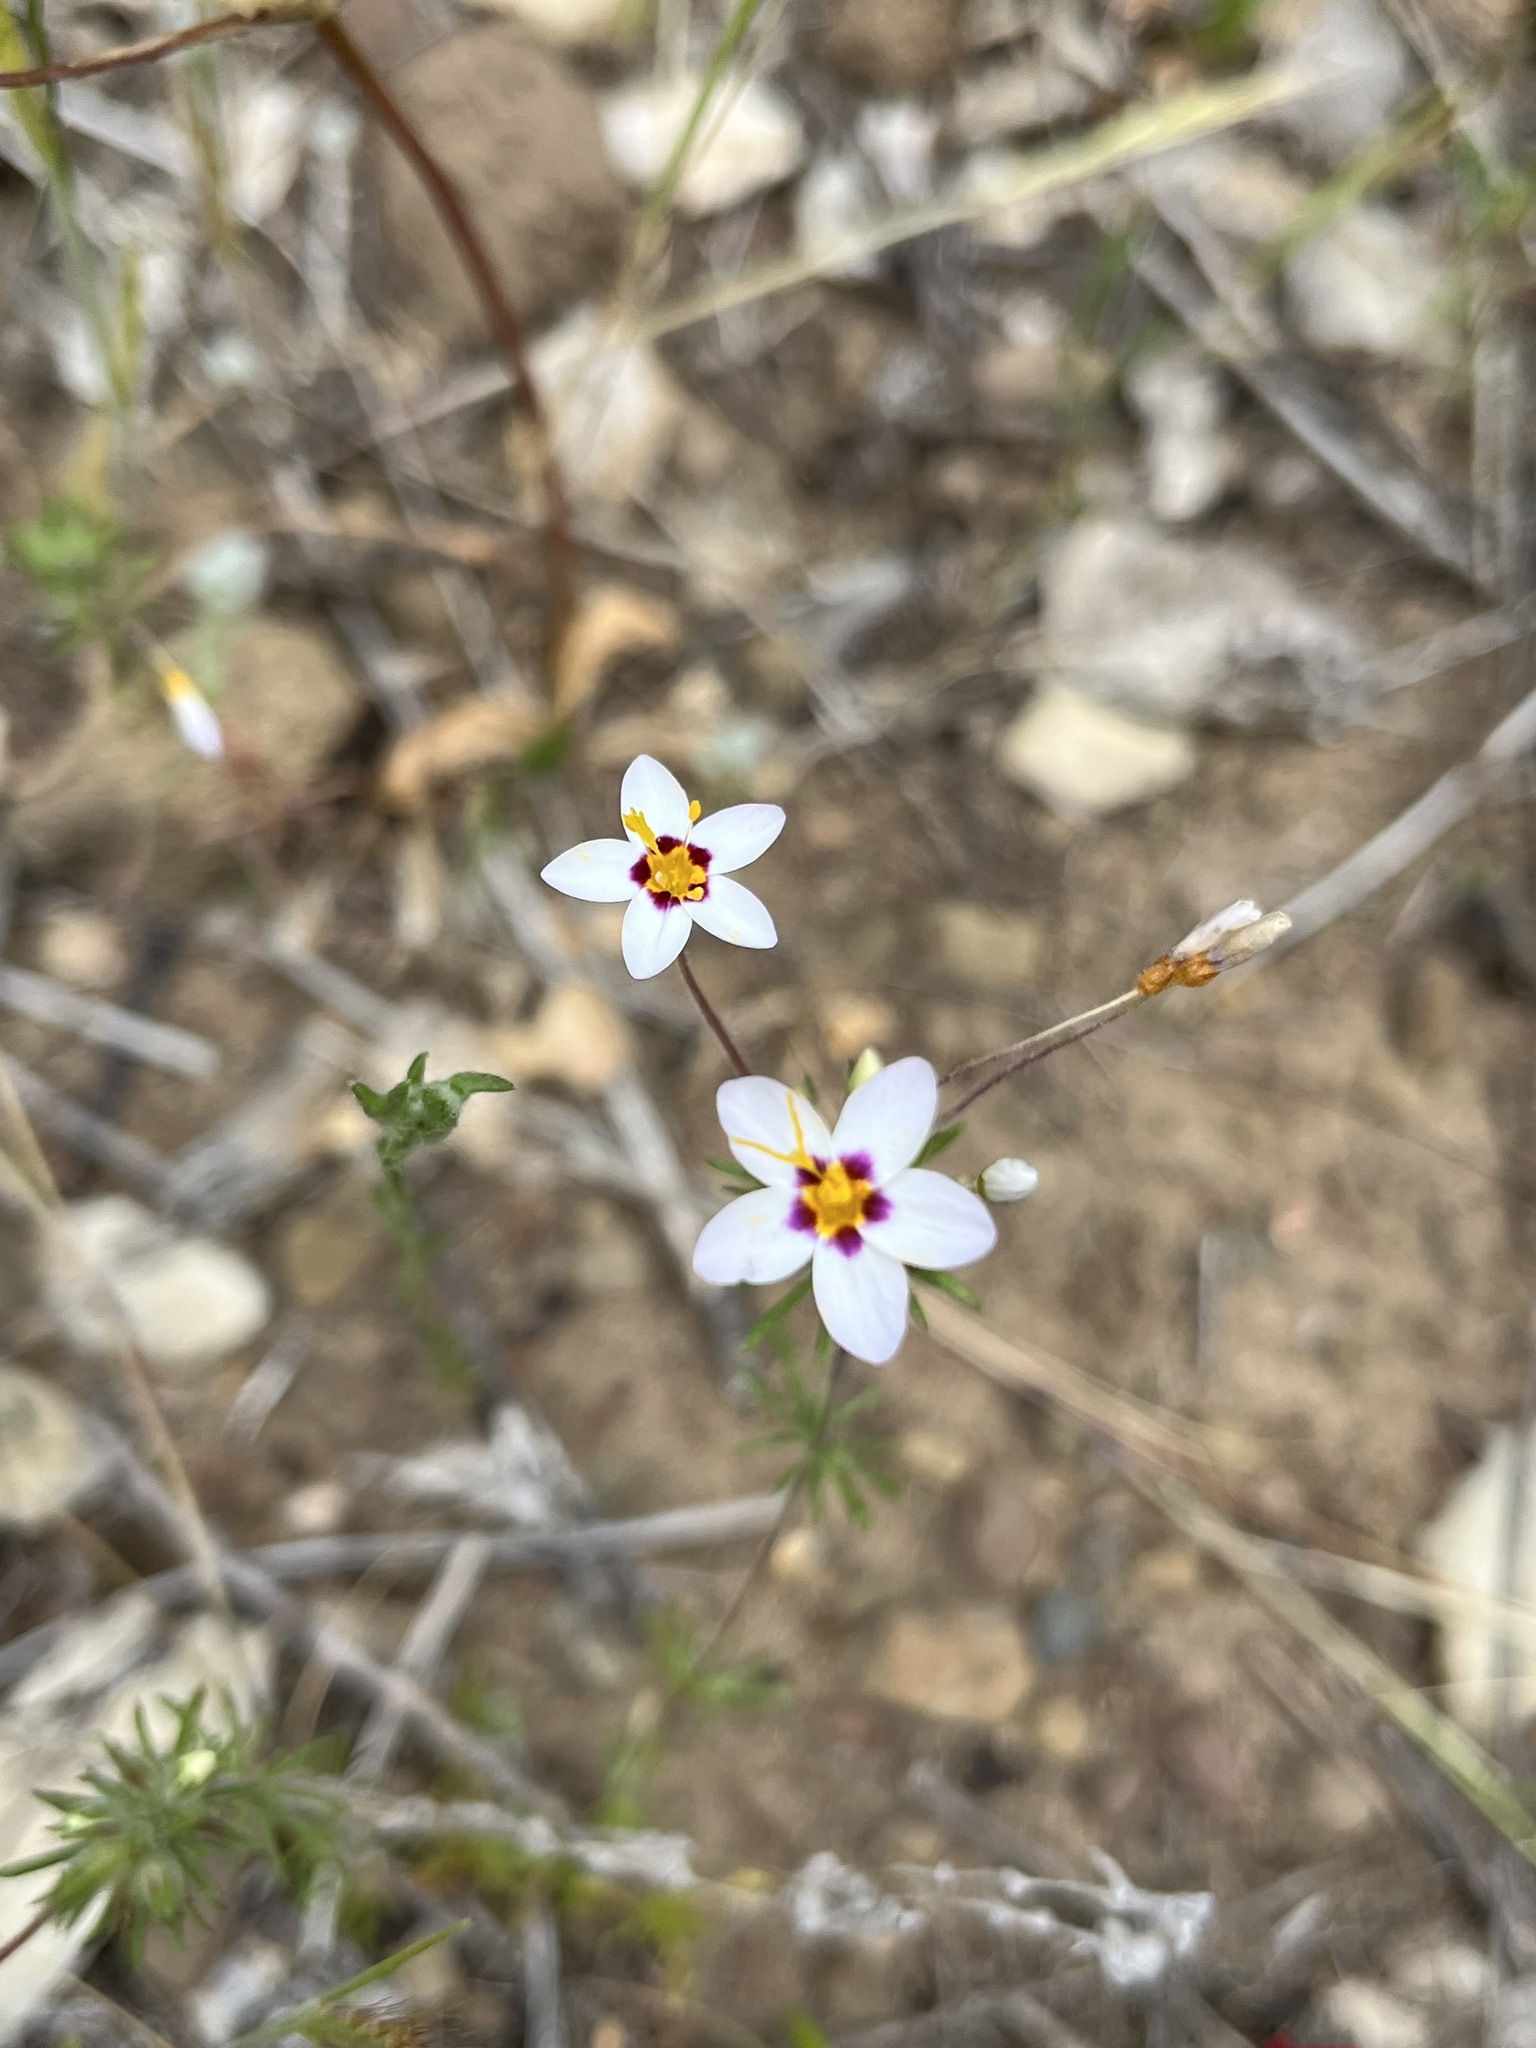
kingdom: Plantae
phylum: Tracheophyta
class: Magnoliopsida
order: Ericales
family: Polemoniaceae
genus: Leptosiphon
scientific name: Leptosiphon parviflorus
